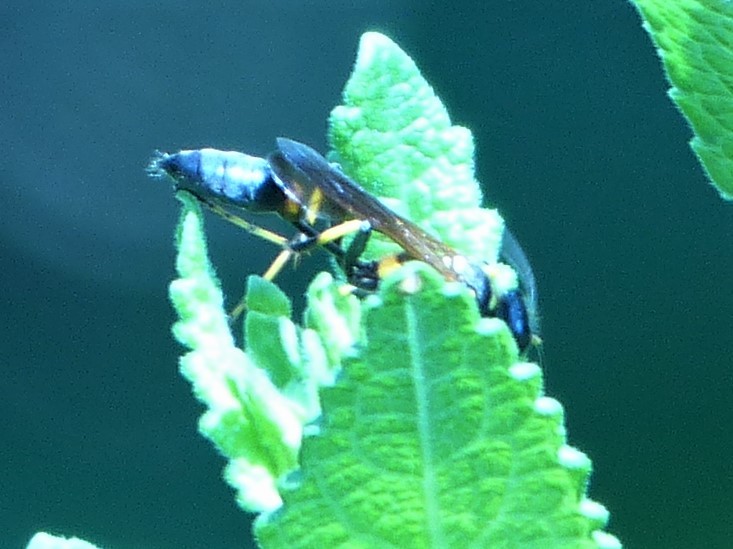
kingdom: Animalia
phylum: Arthropoda
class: Insecta
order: Hymenoptera
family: Sphecidae
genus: Sceliphron
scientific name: Sceliphron caementarium
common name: Mud dauber
